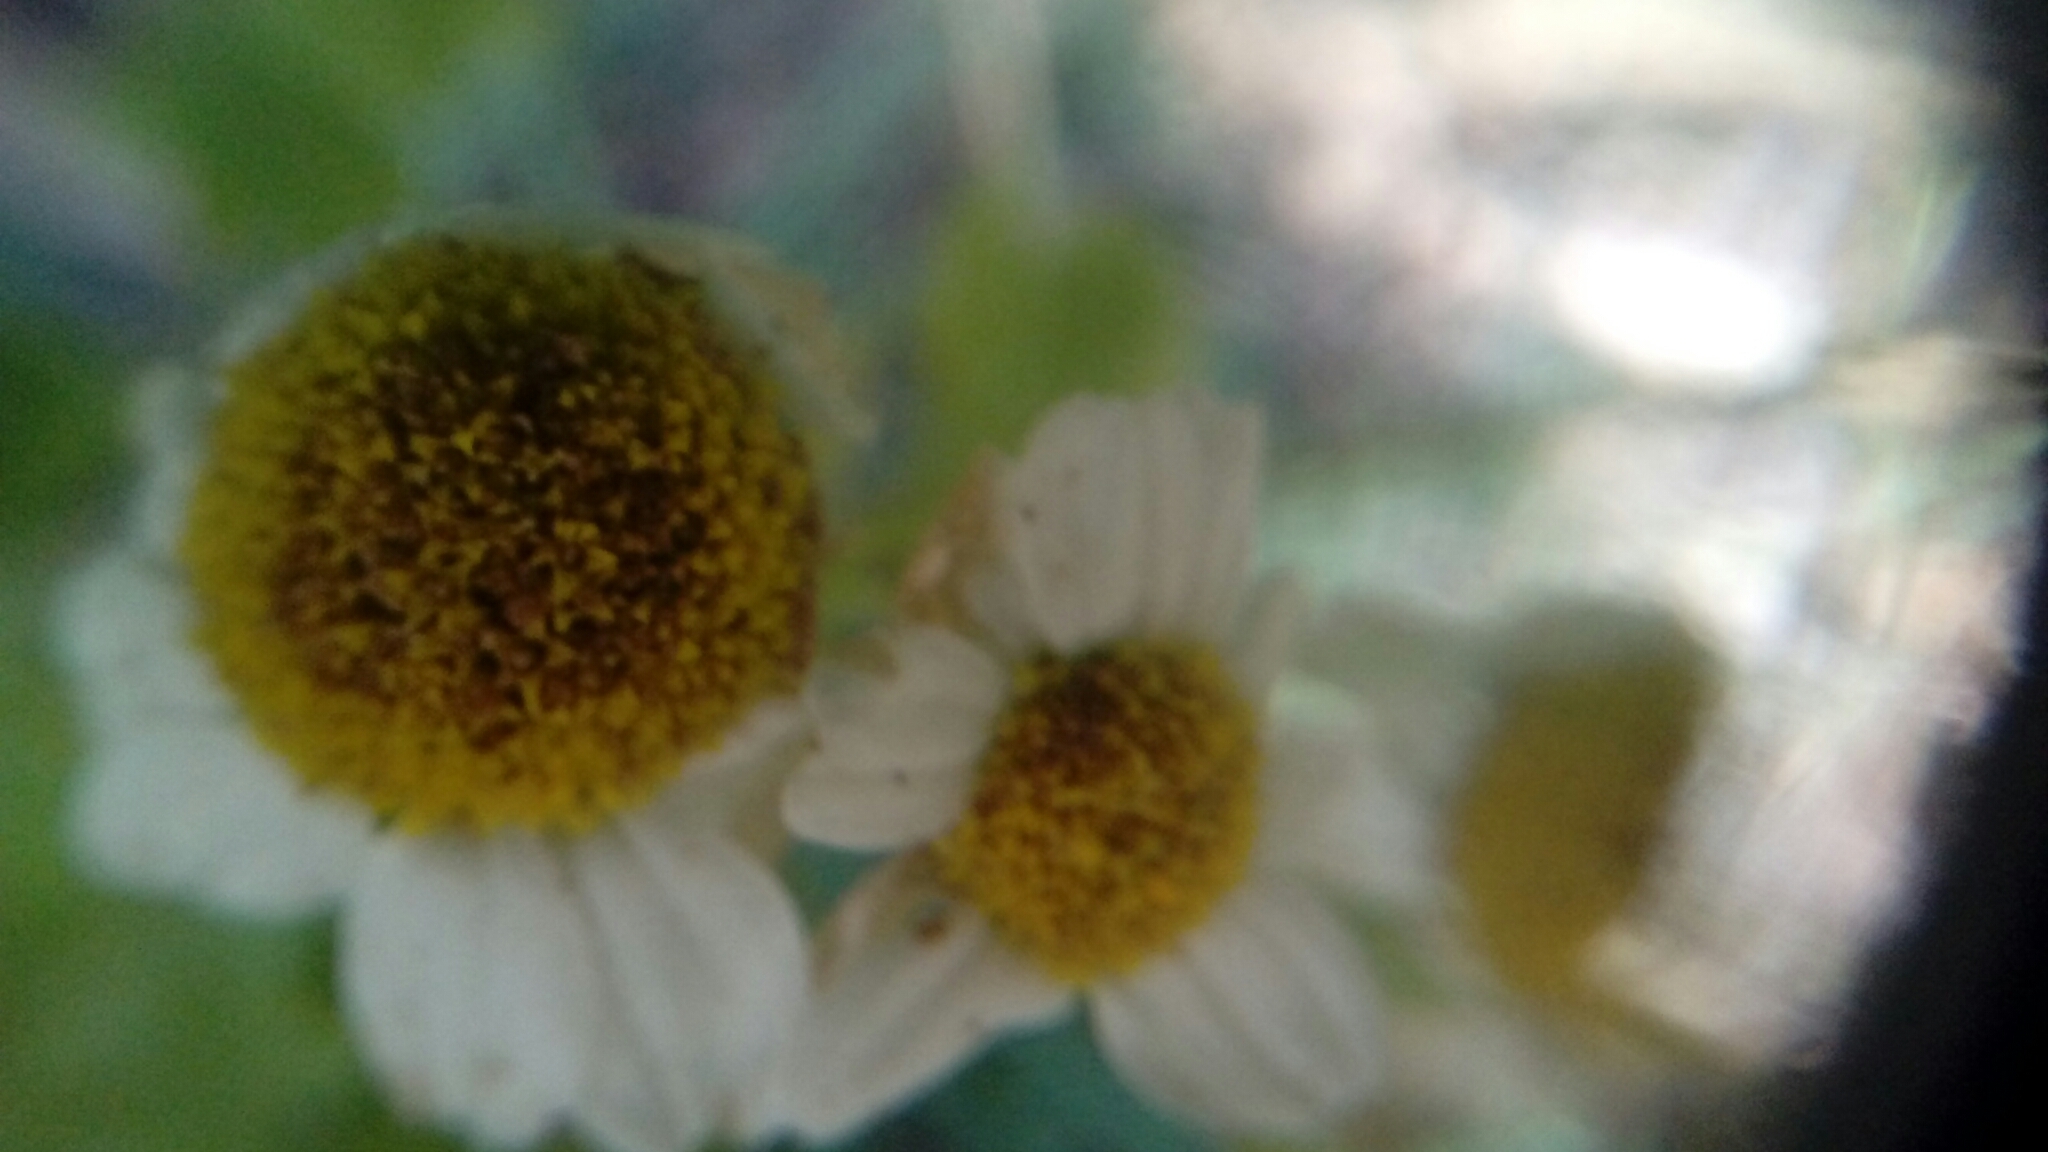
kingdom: Plantae
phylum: Tracheophyta
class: Magnoliopsida
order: Asterales
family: Asteraceae
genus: Tanacetum
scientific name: Tanacetum parthenium
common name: Feverfew
